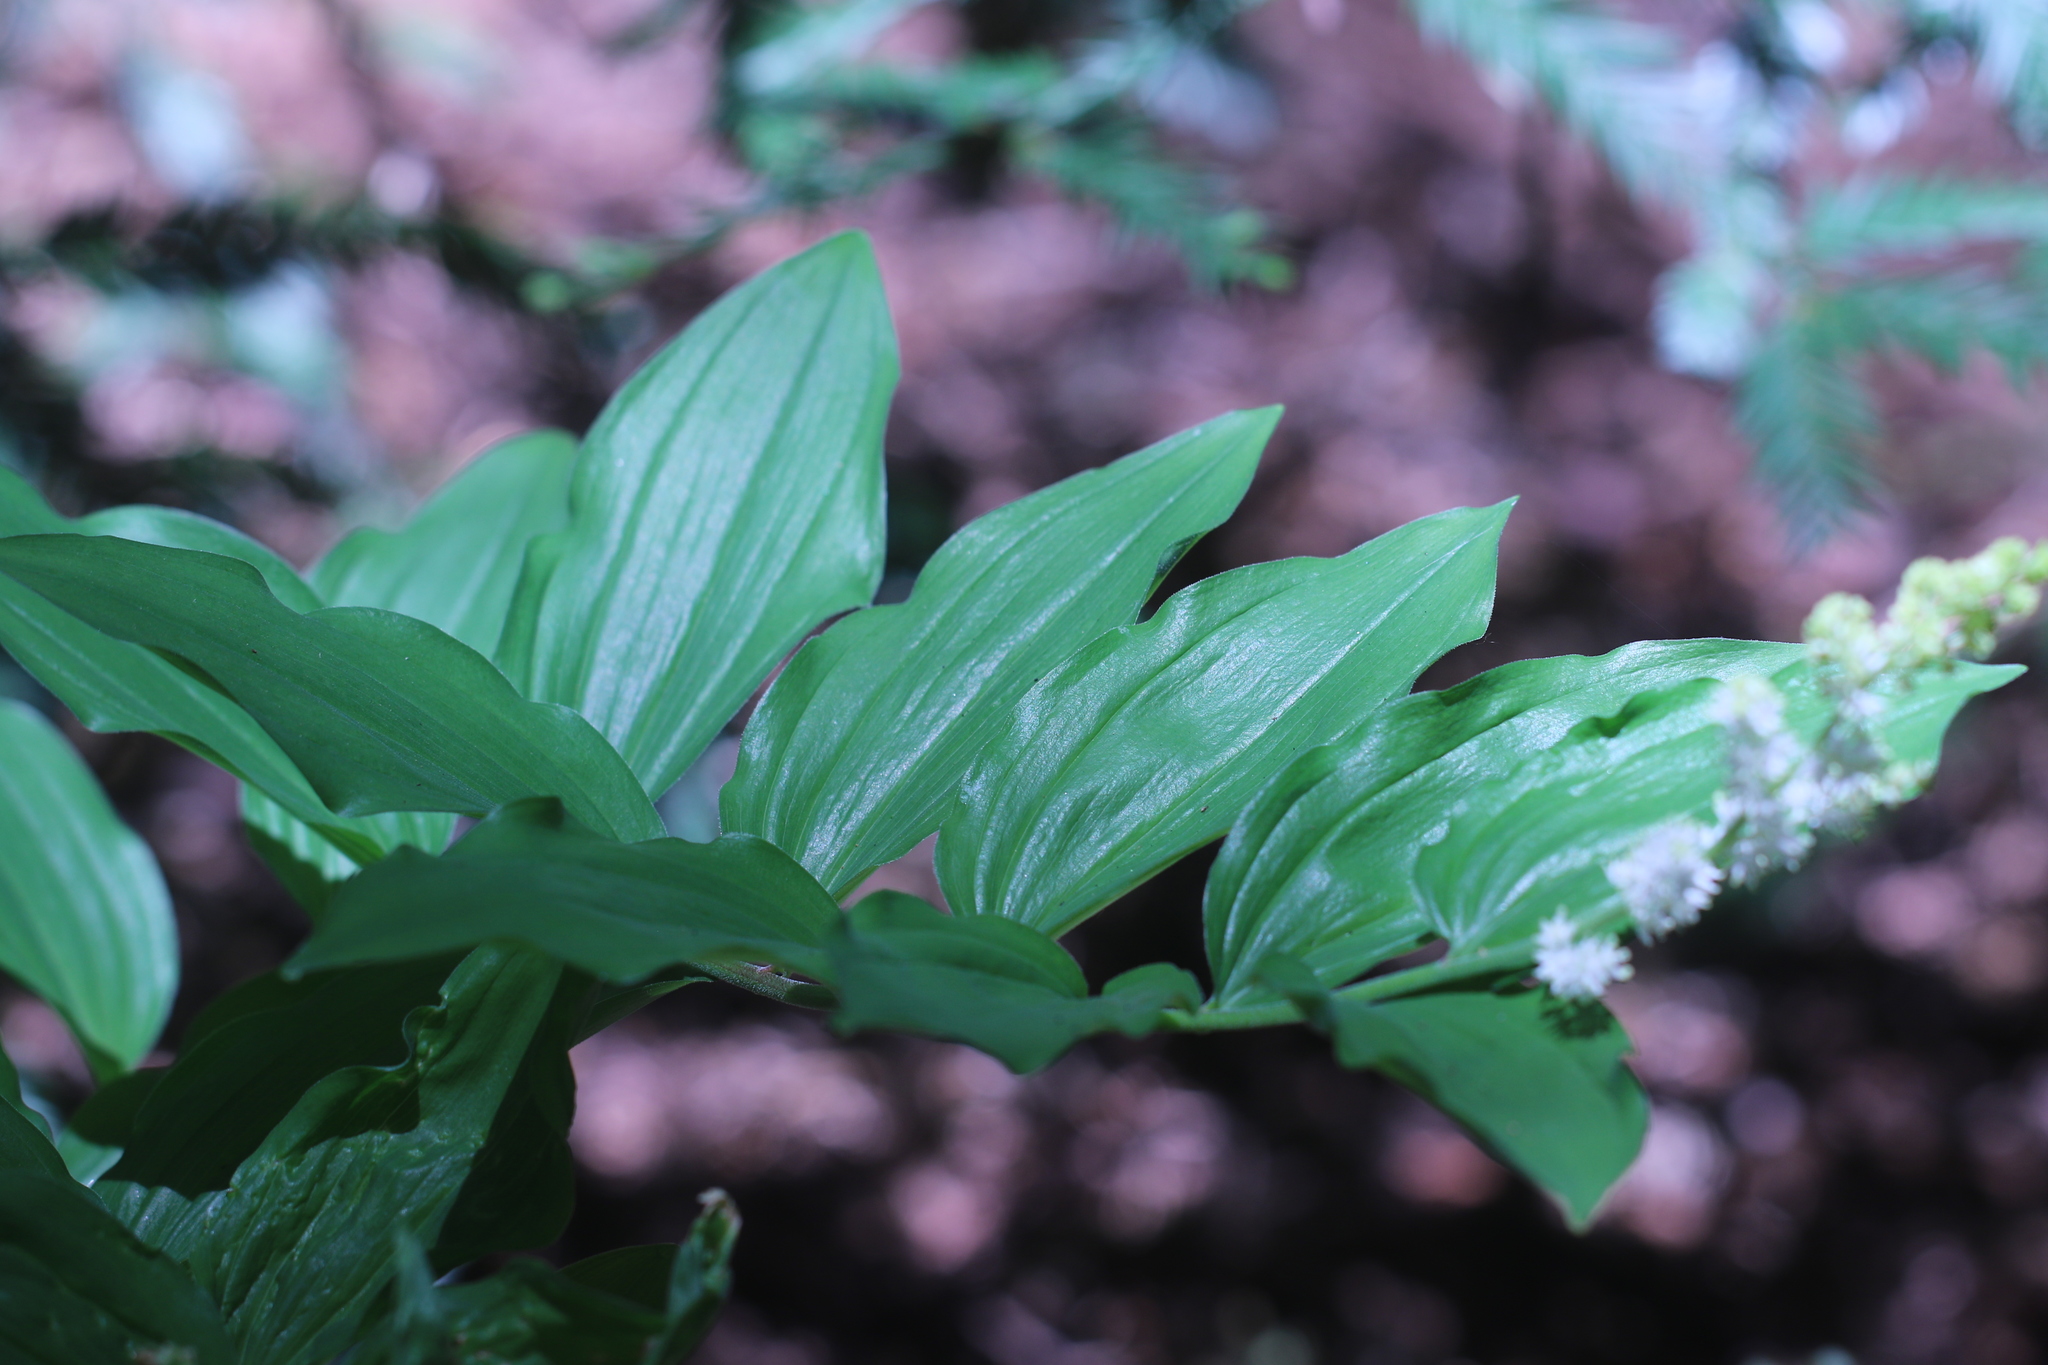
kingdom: Plantae
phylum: Tracheophyta
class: Liliopsida
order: Asparagales
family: Asparagaceae
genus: Maianthemum
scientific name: Maianthemum racemosum
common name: False spikenard
